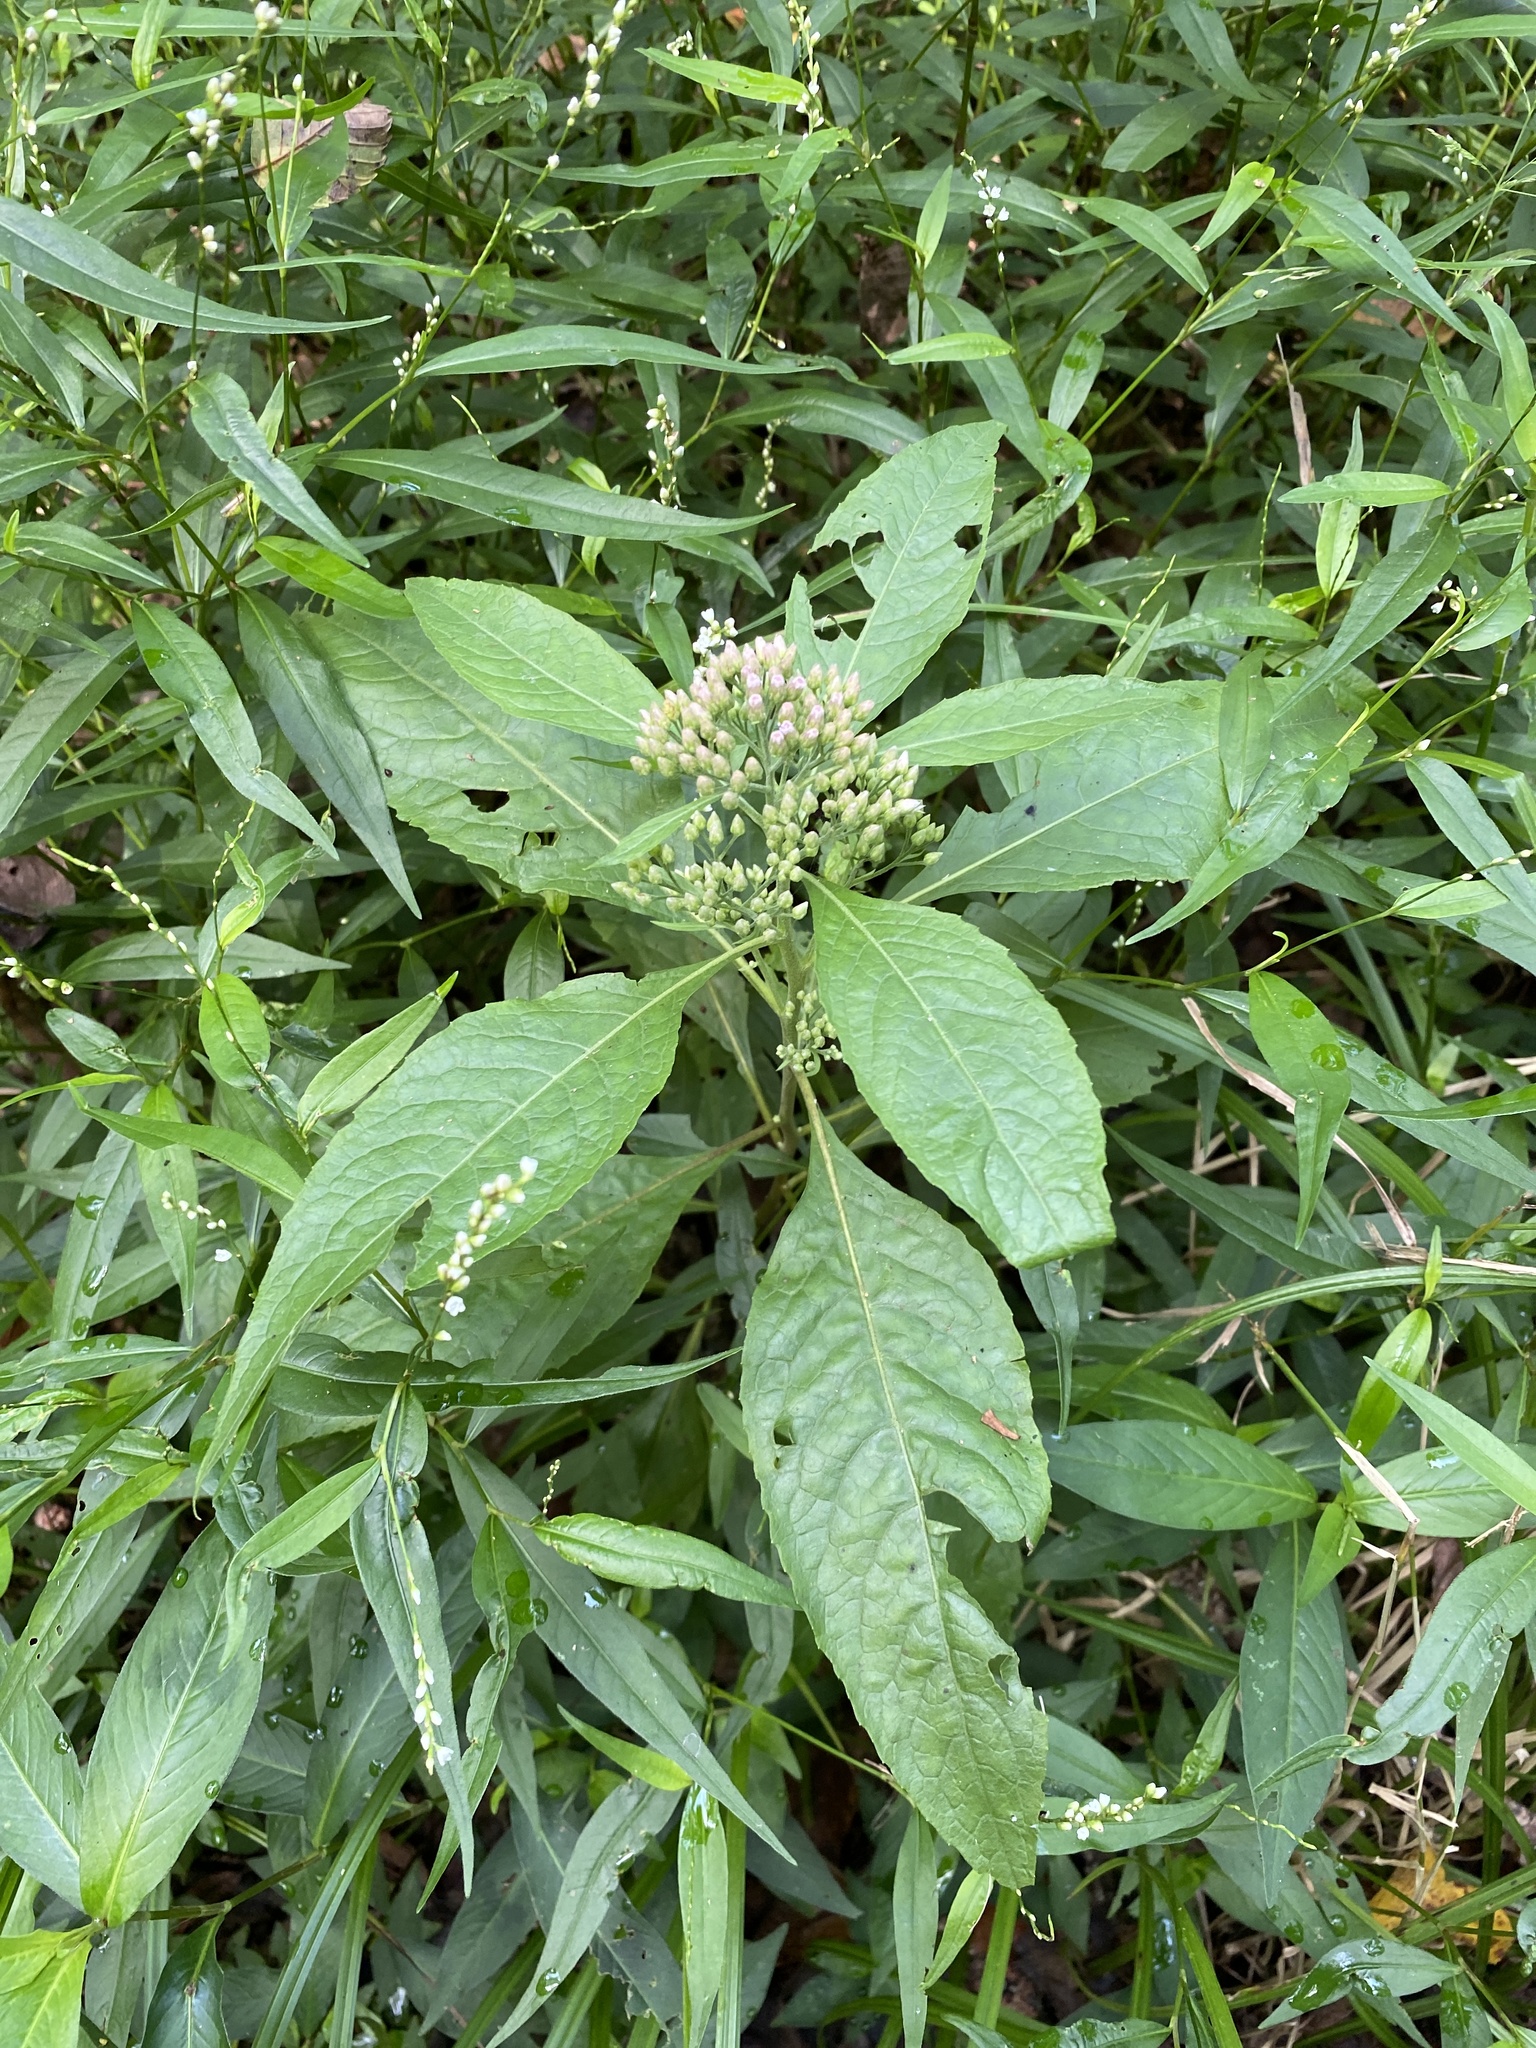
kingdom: Plantae
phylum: Tracheophyta
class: Magnoliopsida
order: Asterales
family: Asteraceae
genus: Pluchea
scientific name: Pluchea camphorata
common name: Camphor pluchea
